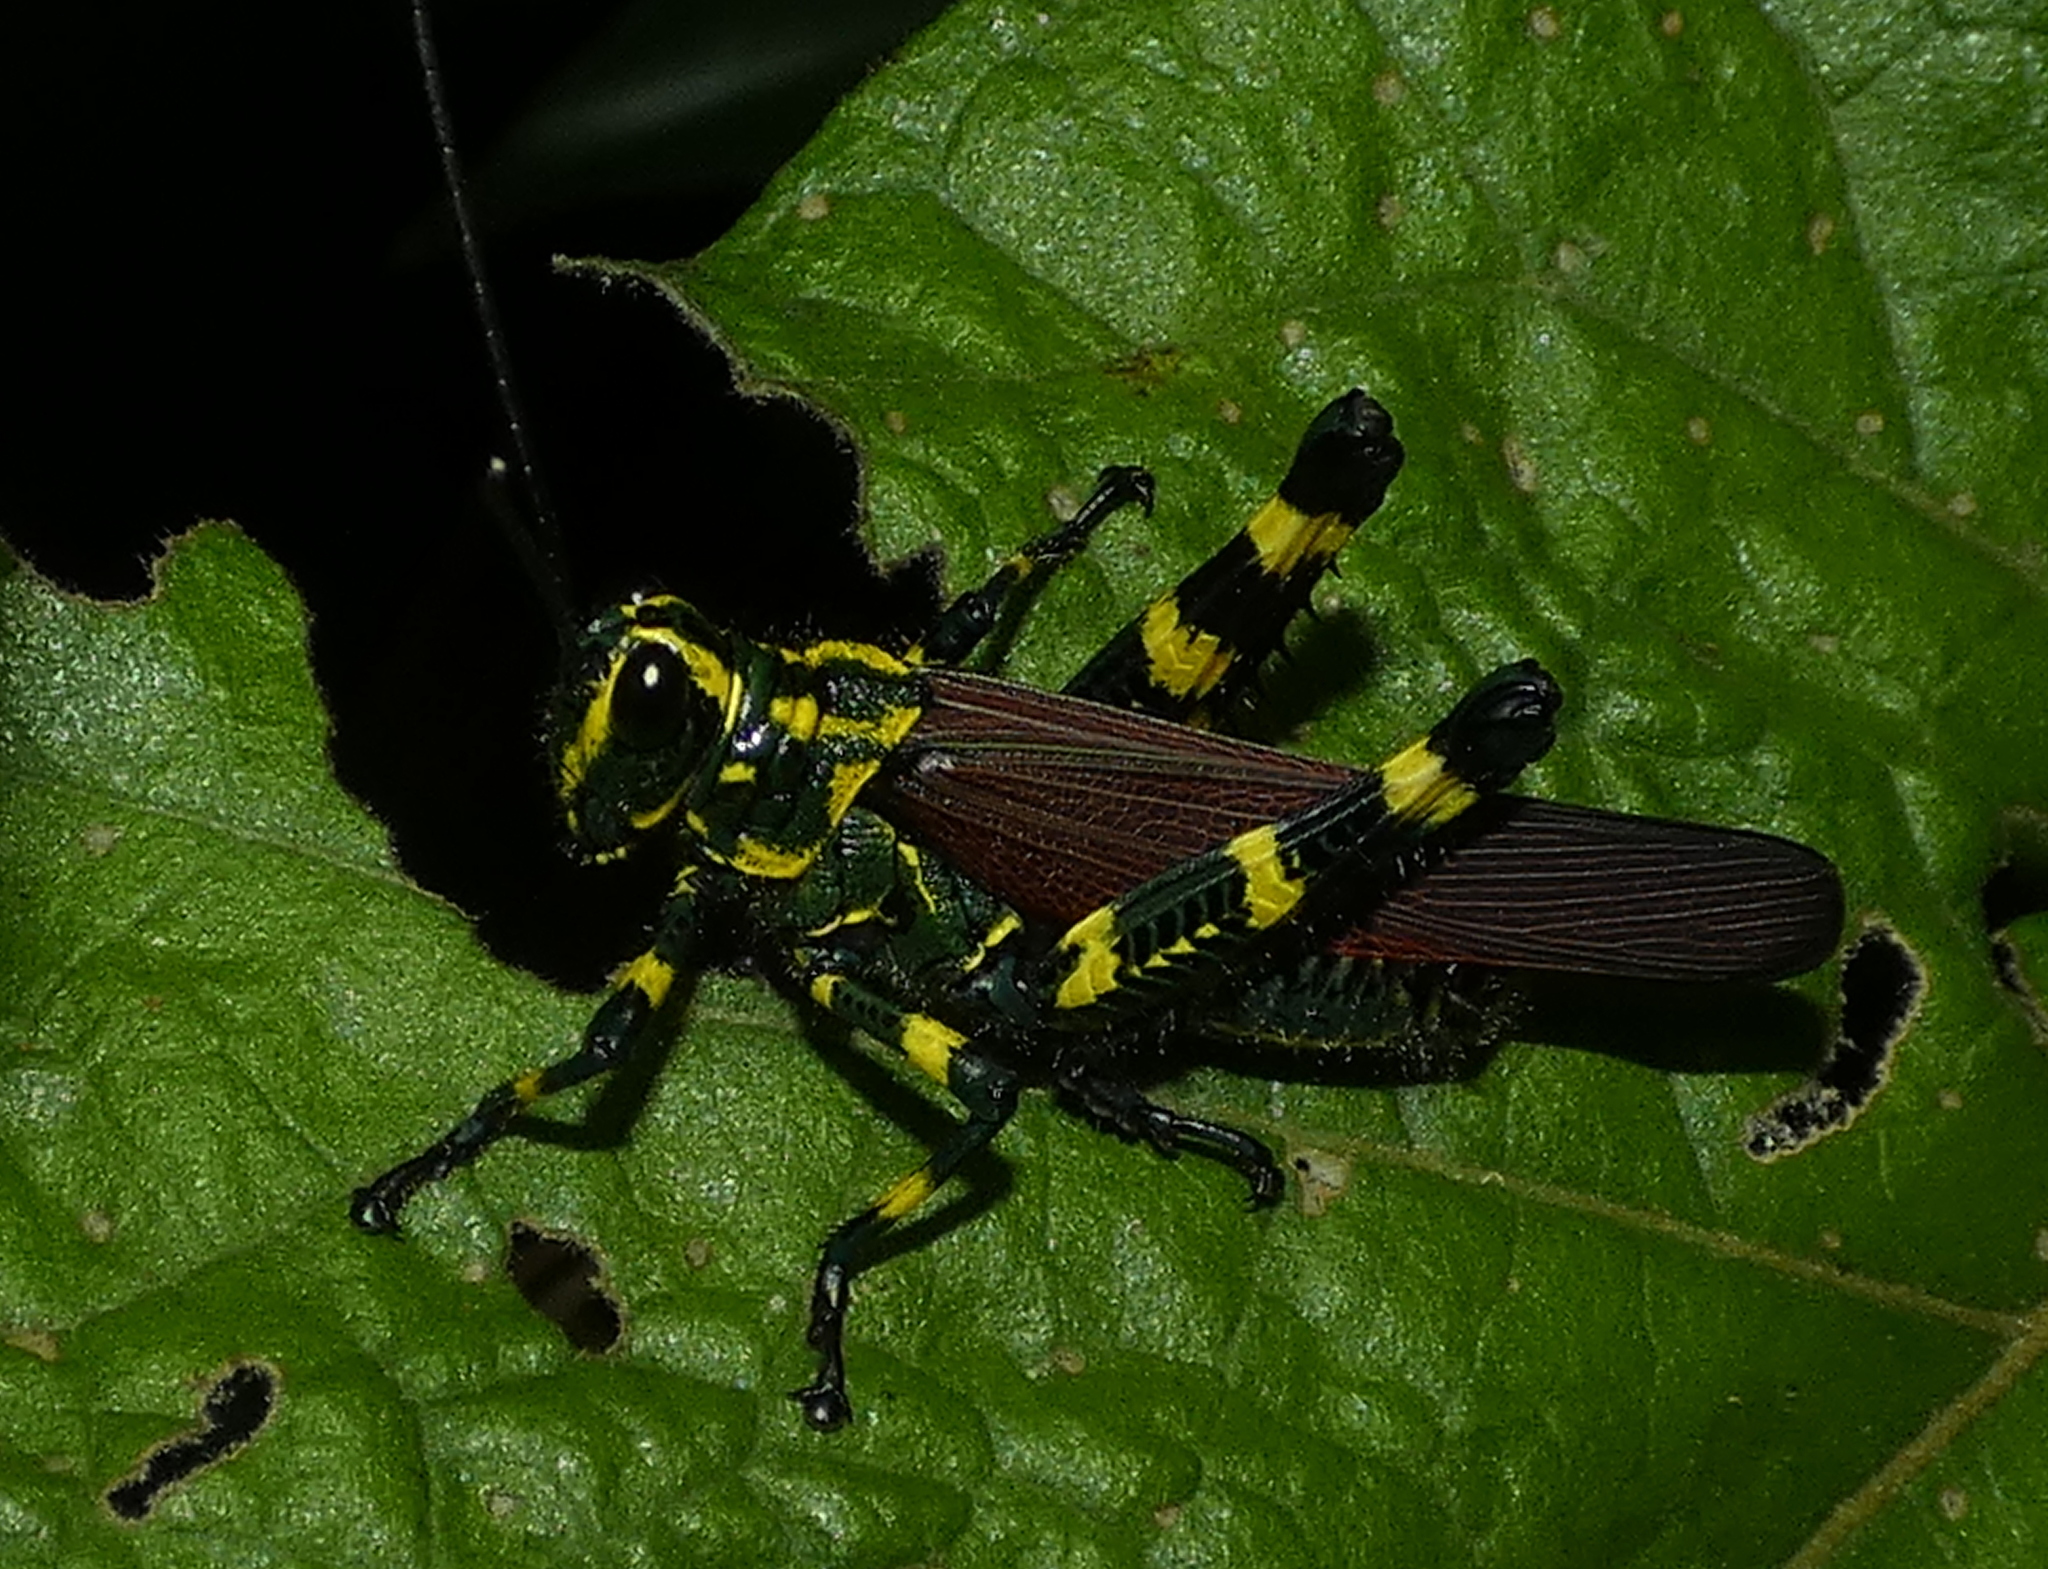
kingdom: Animalia
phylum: Arthropoda
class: Insecta
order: Orthoptera
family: Romaleidae
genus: Chromacris
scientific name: Chromacris speciosa
